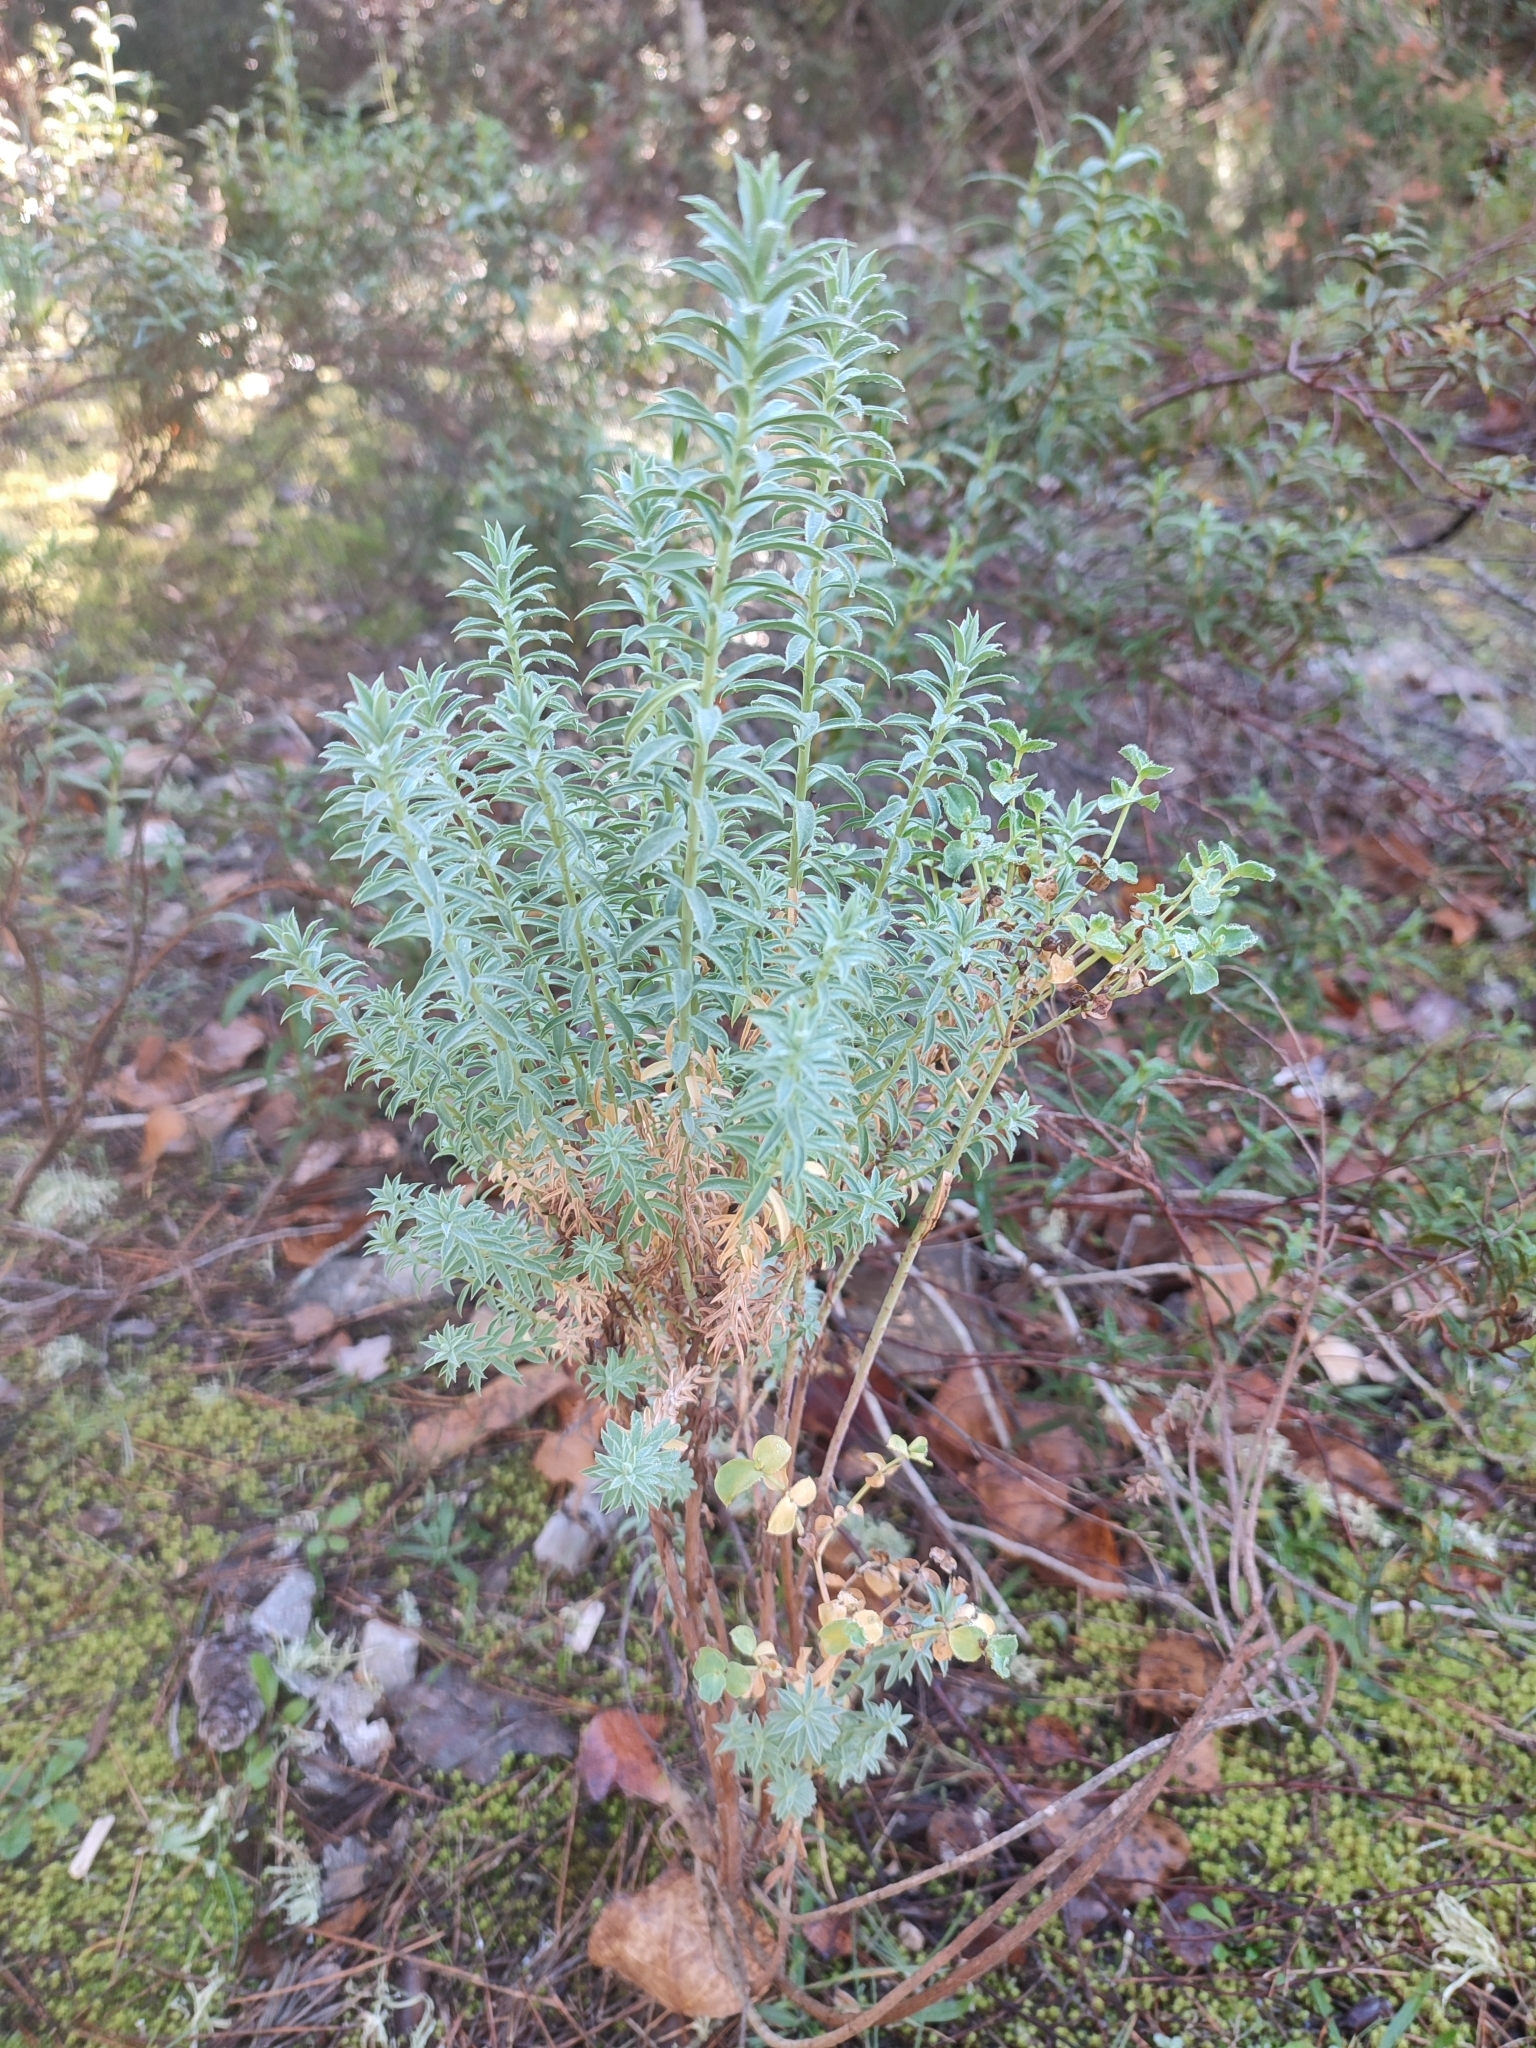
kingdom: Plantae
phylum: Tracheophyta
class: Magnoliopsida
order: Malpighiales
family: Euphorbiaceae
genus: Euphorbia
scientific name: Euphorbia pithyusa
